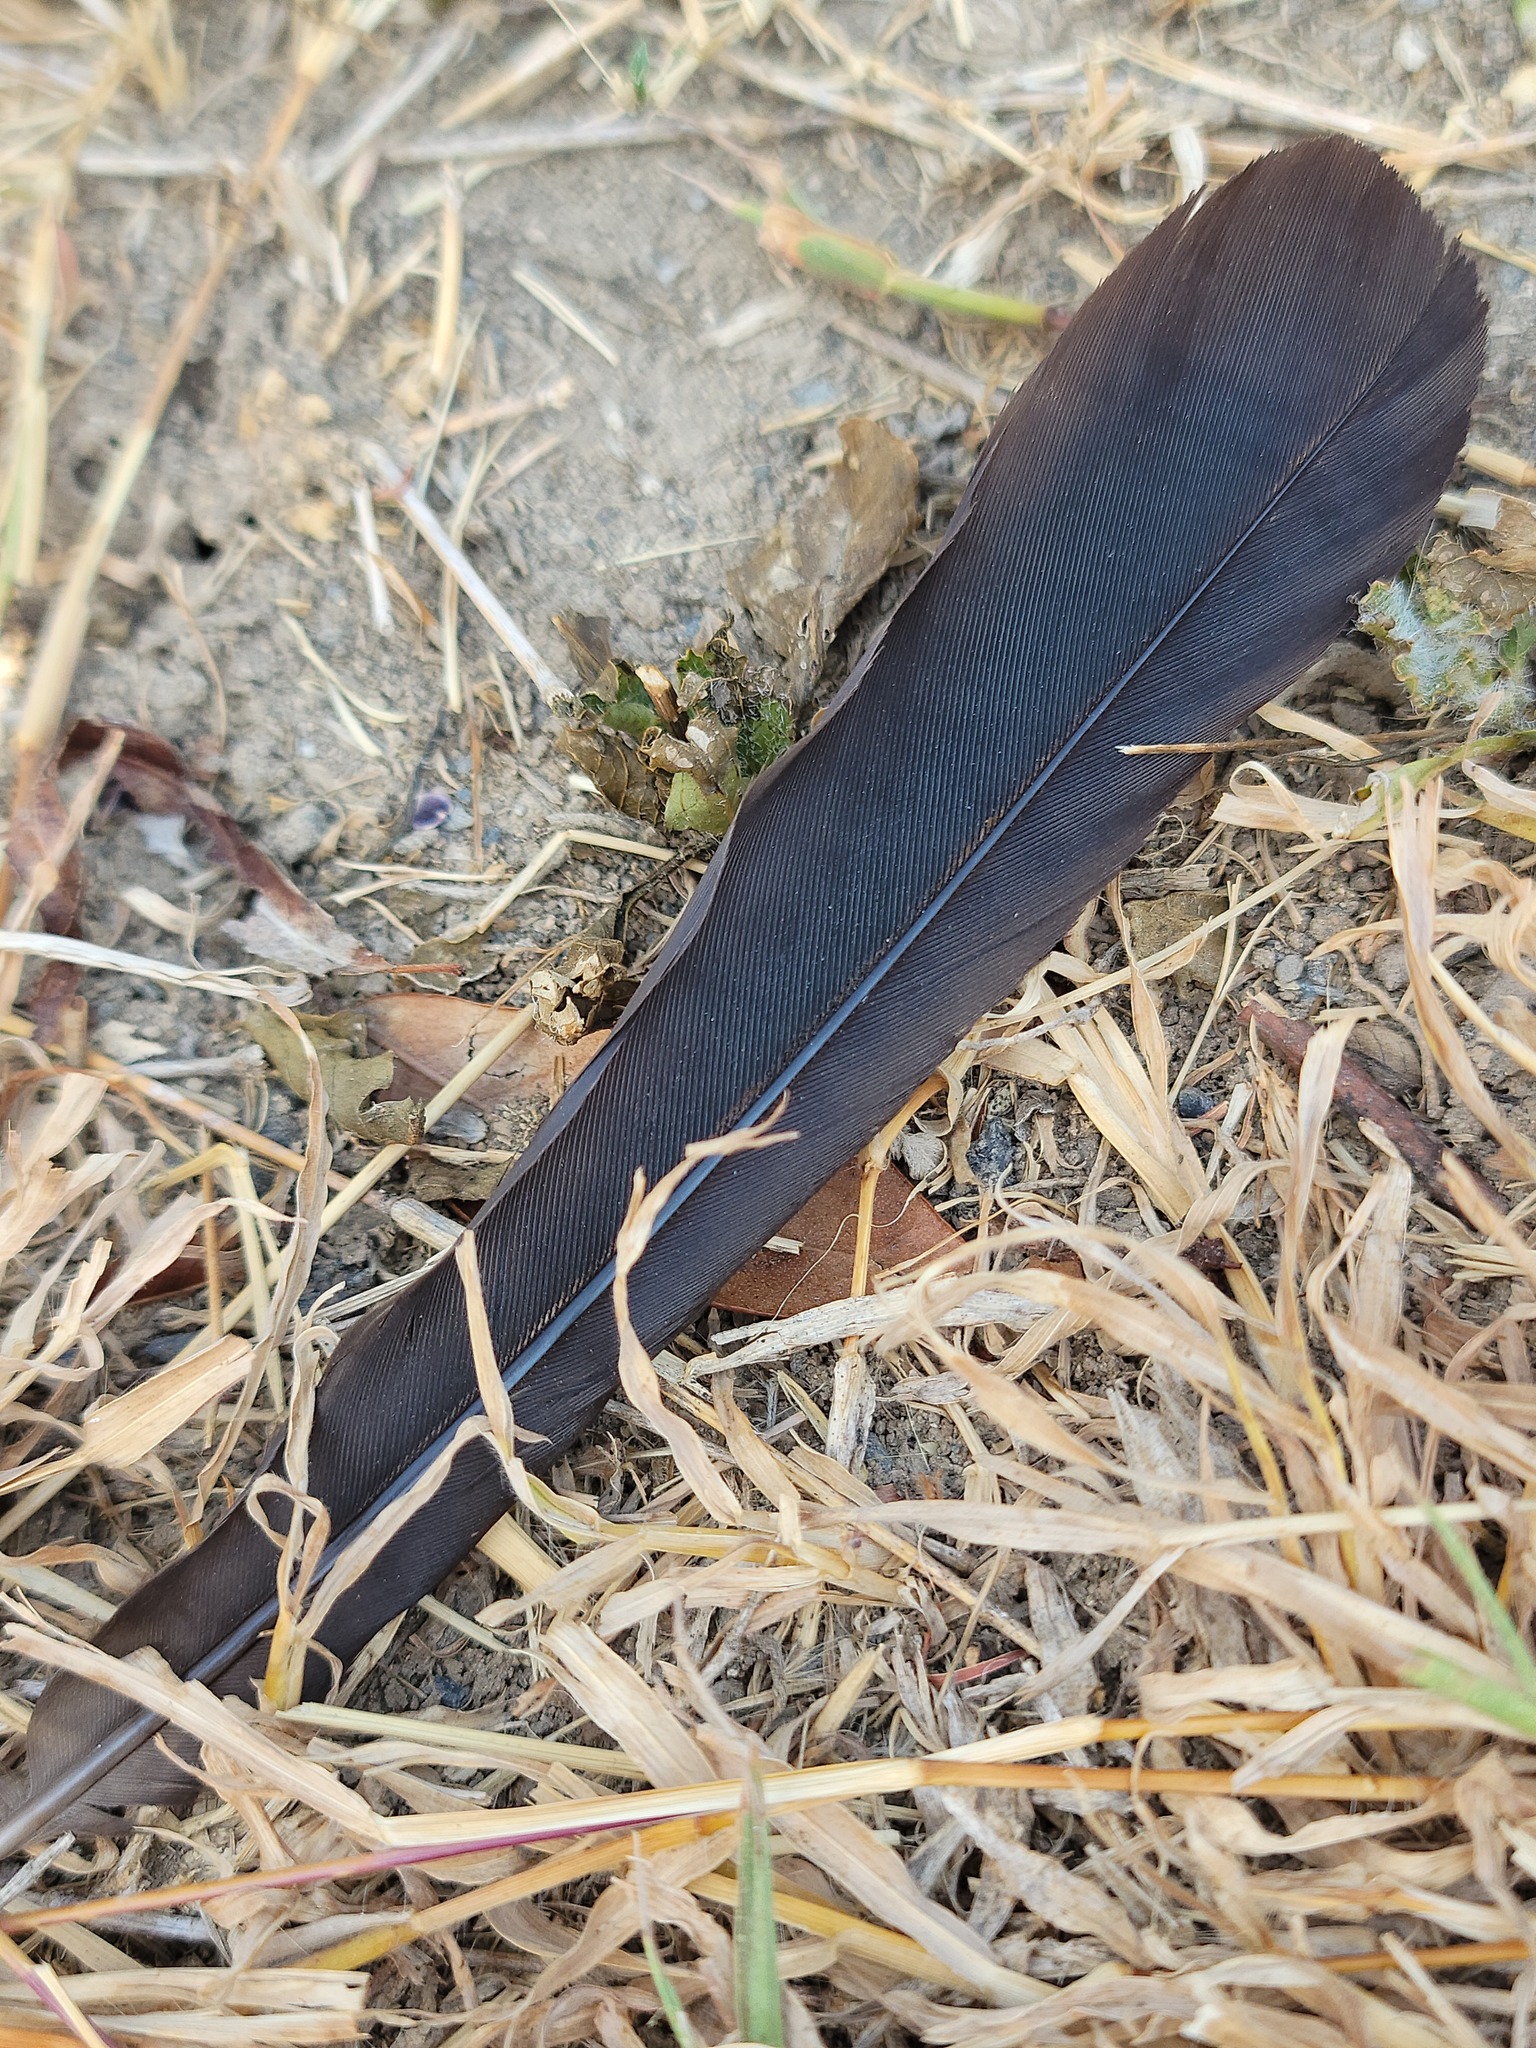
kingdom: Animalia
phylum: Chordata
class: Aves
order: Passeriformes
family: Icteridae
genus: Quiscalus
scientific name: Quiscalus mexicanus
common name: Great-tailed grackle
